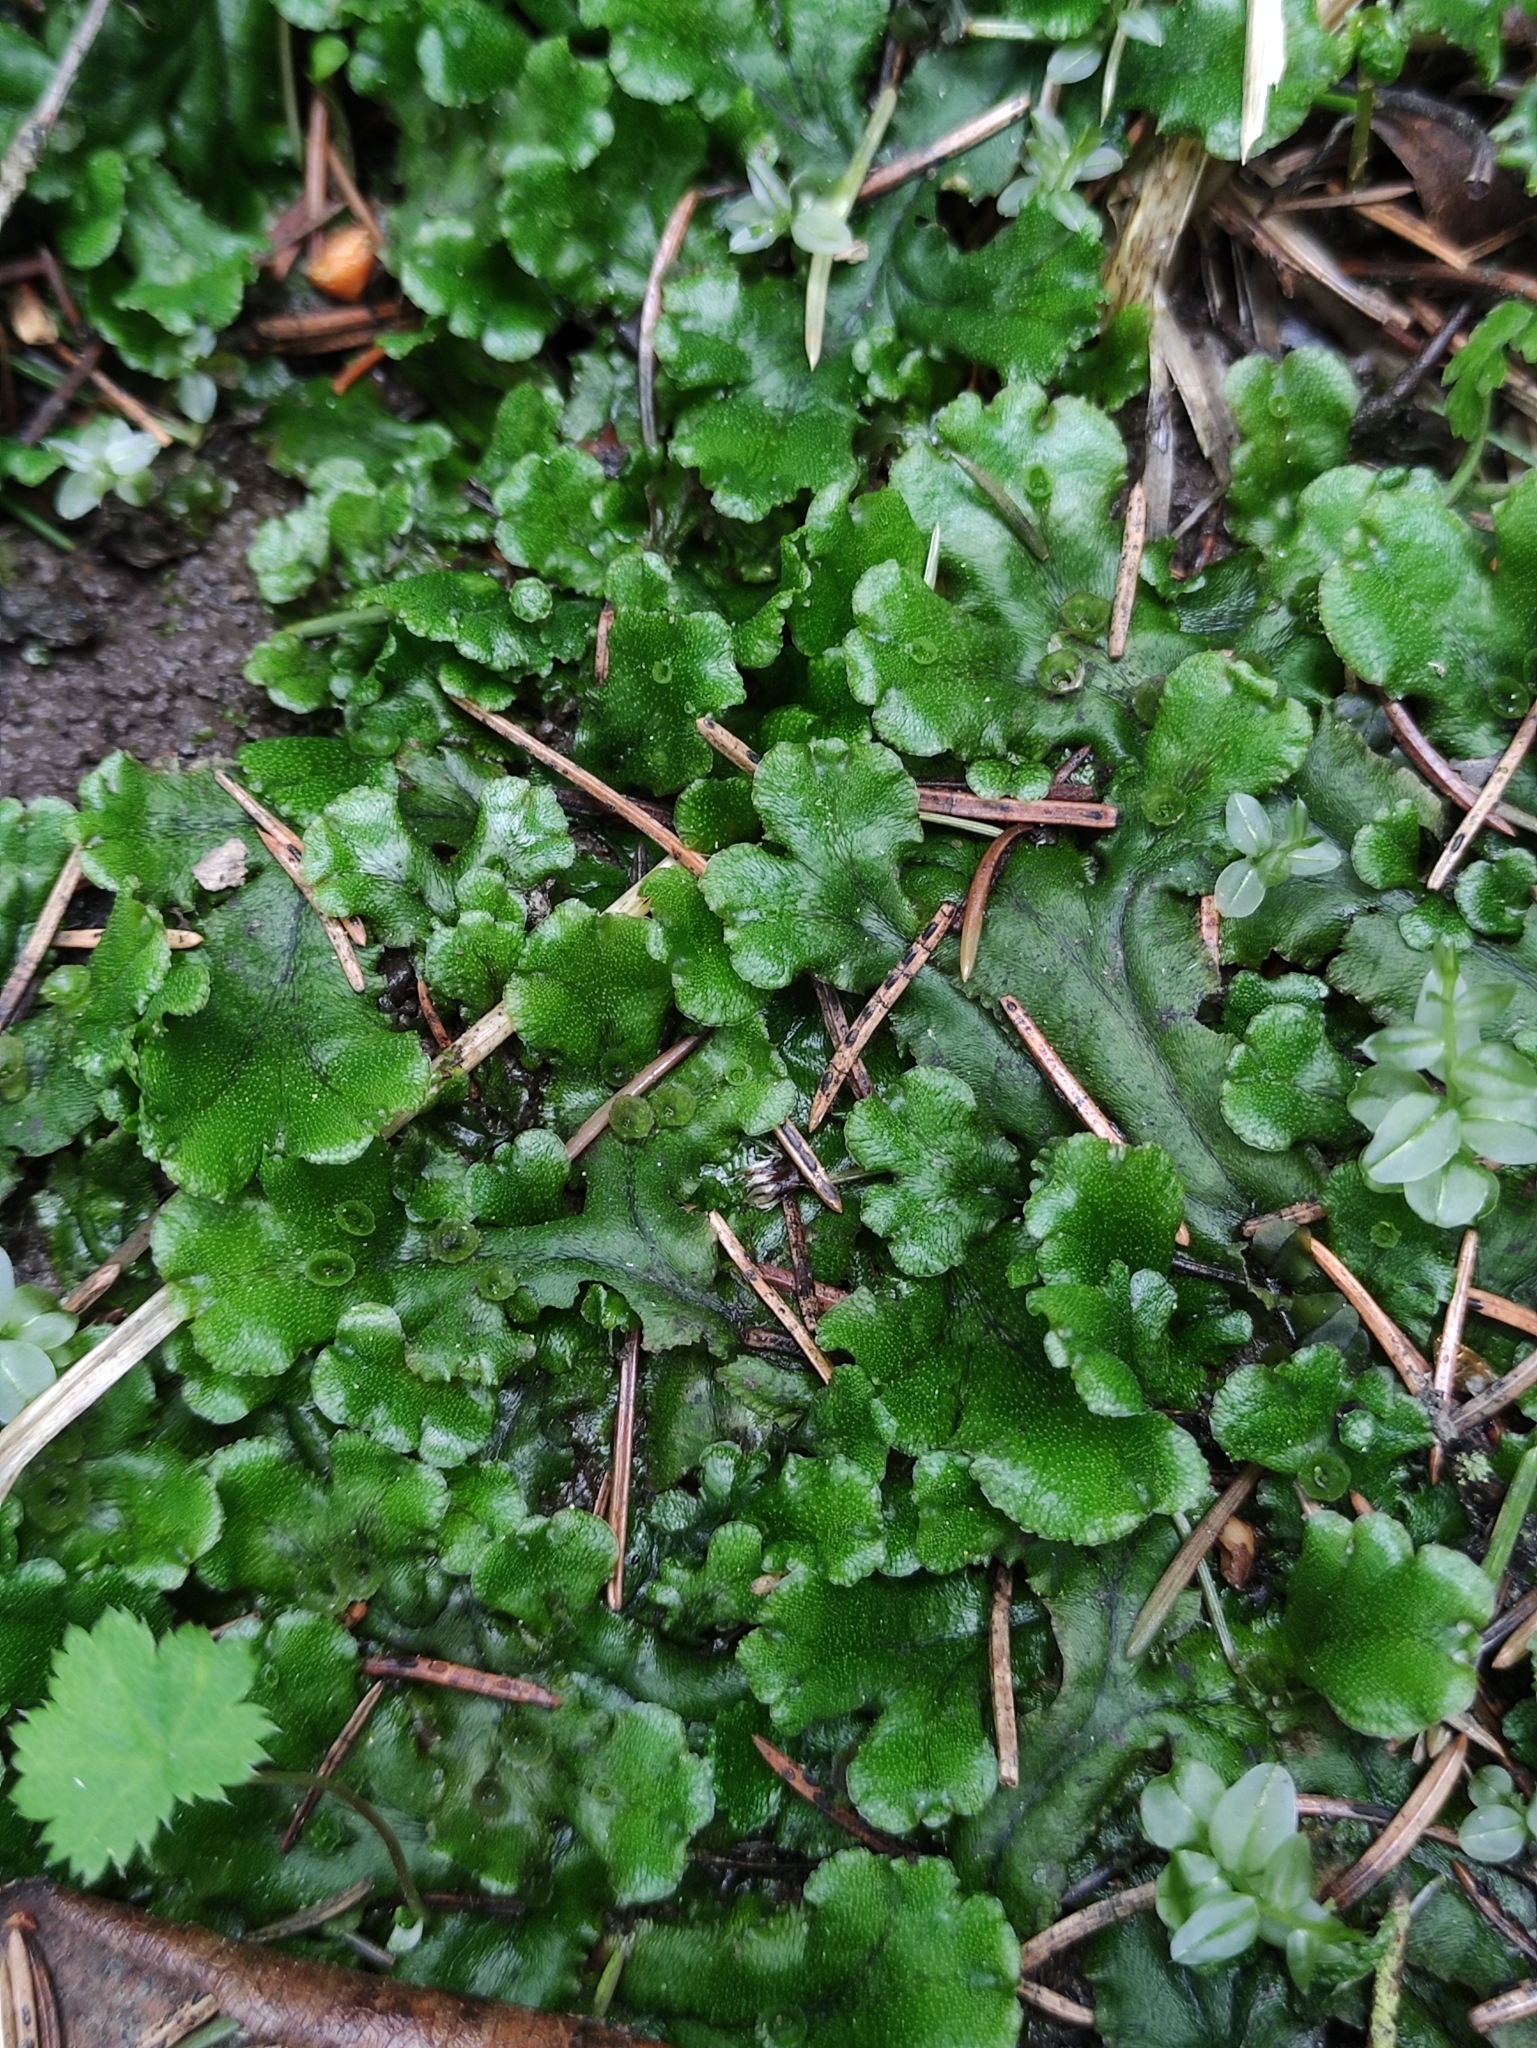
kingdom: Plantae
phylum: Marchantiophyta
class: Marchantiopsida
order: Marchantiales
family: Marchantiaceae
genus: Marchantia
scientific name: Marchantia polymorpha
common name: Common liverwort
